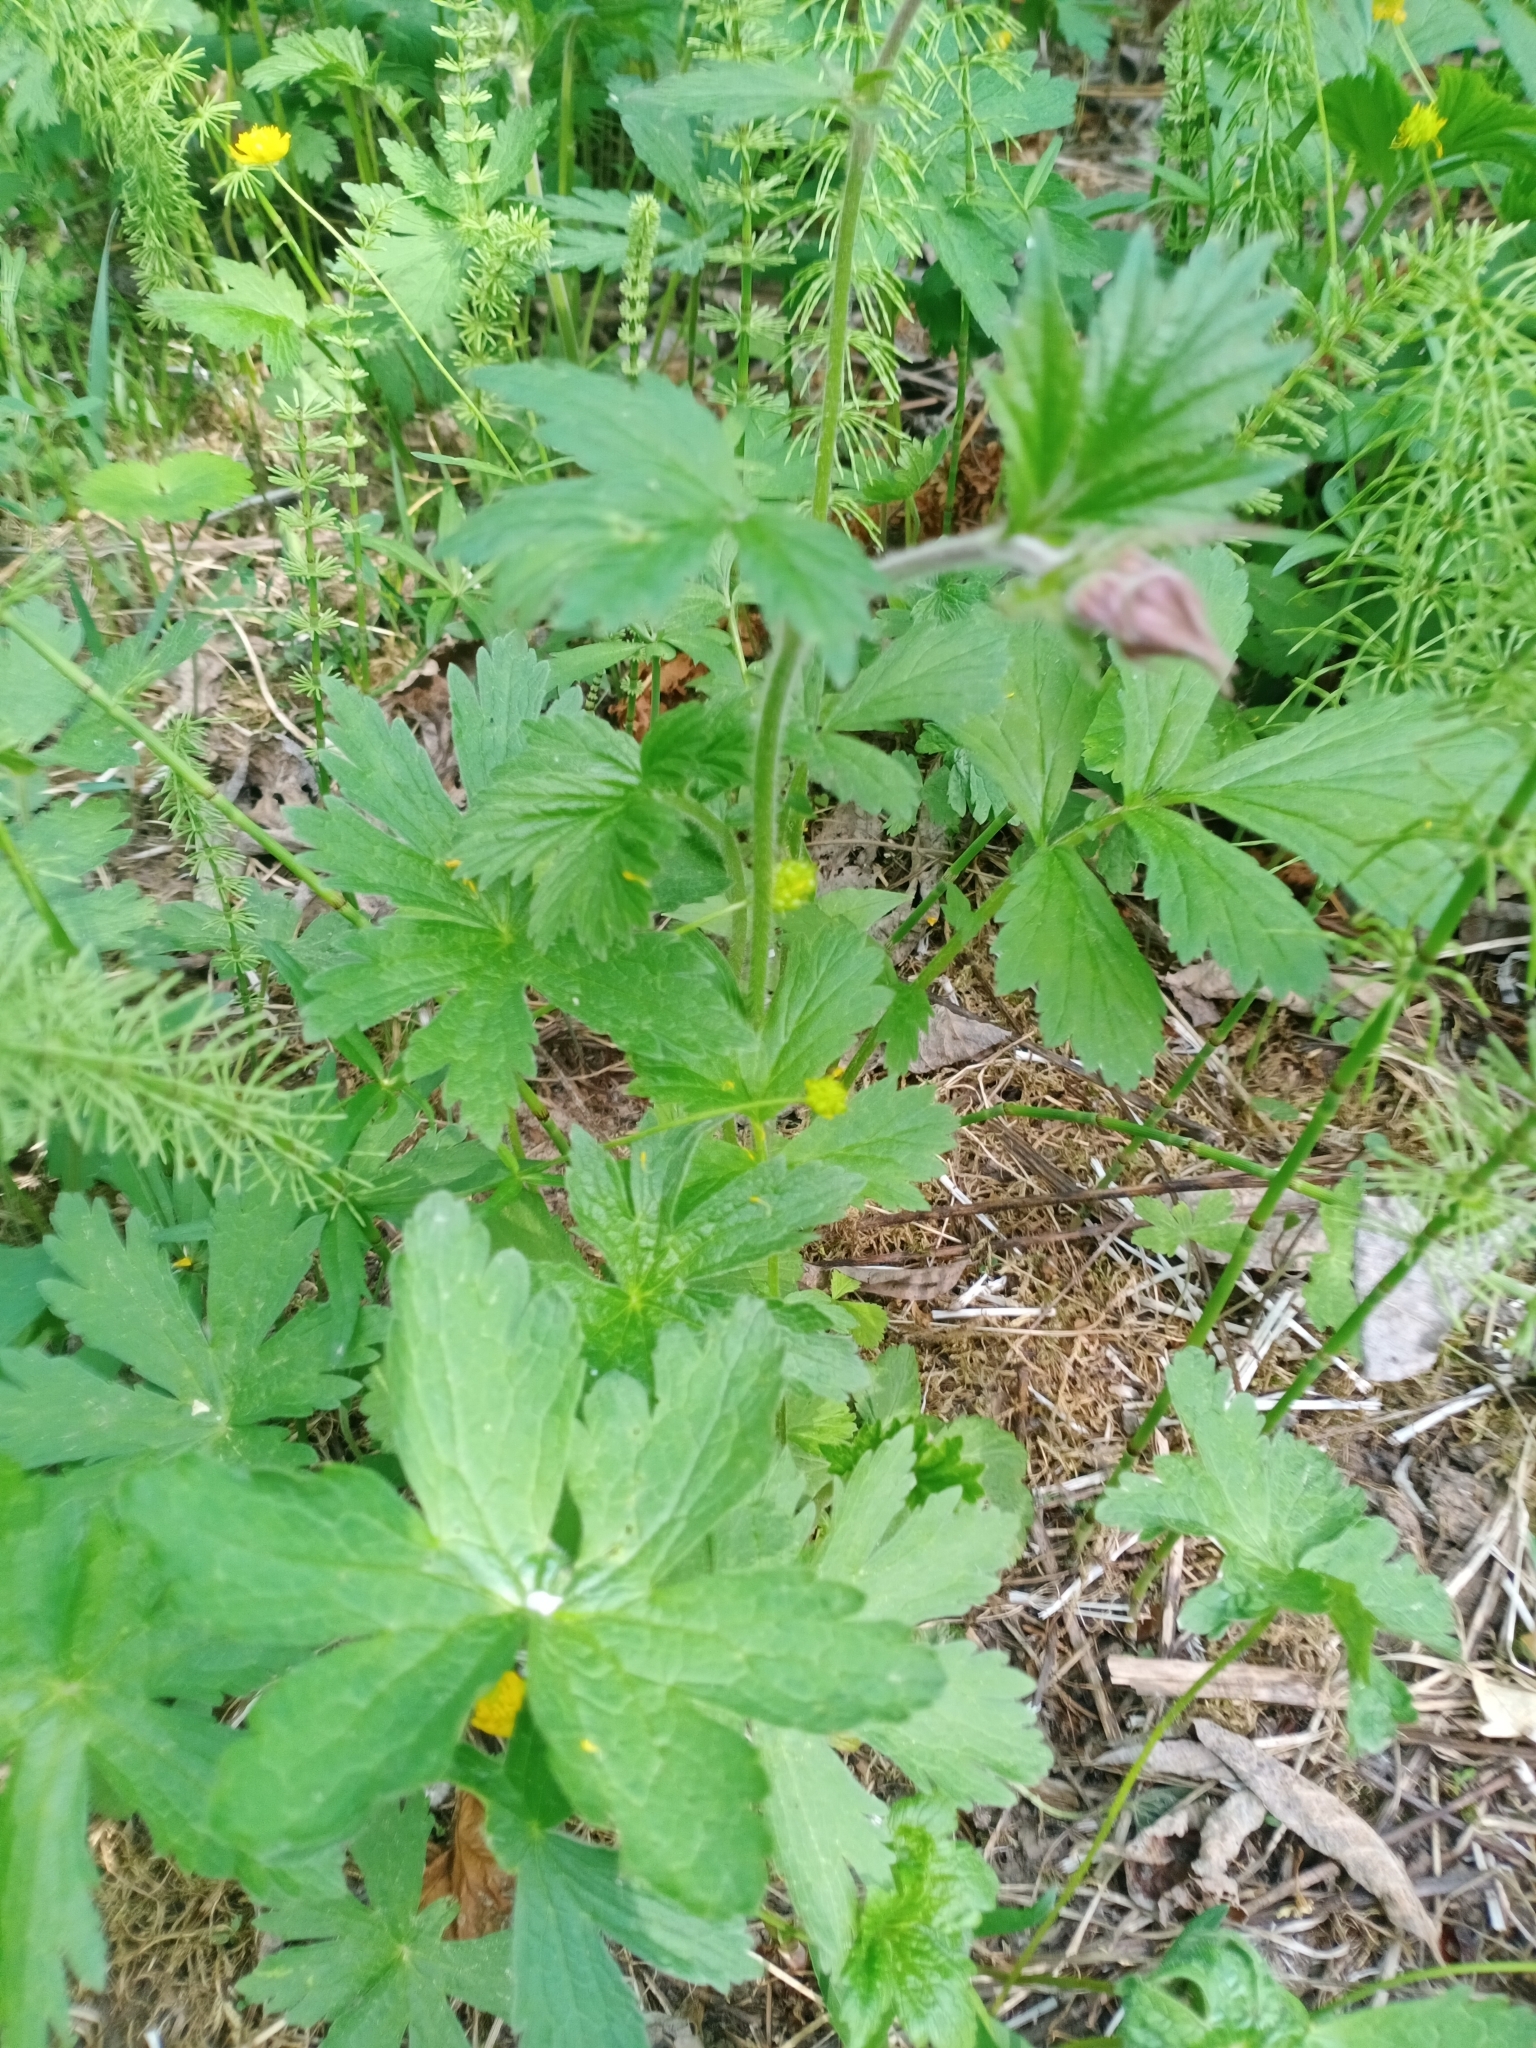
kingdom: Plantae
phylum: Tracheophyta
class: Magnoliopsida
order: Rosales
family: Rosaceae
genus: Geum
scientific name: Geum rivale
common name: Water avens
